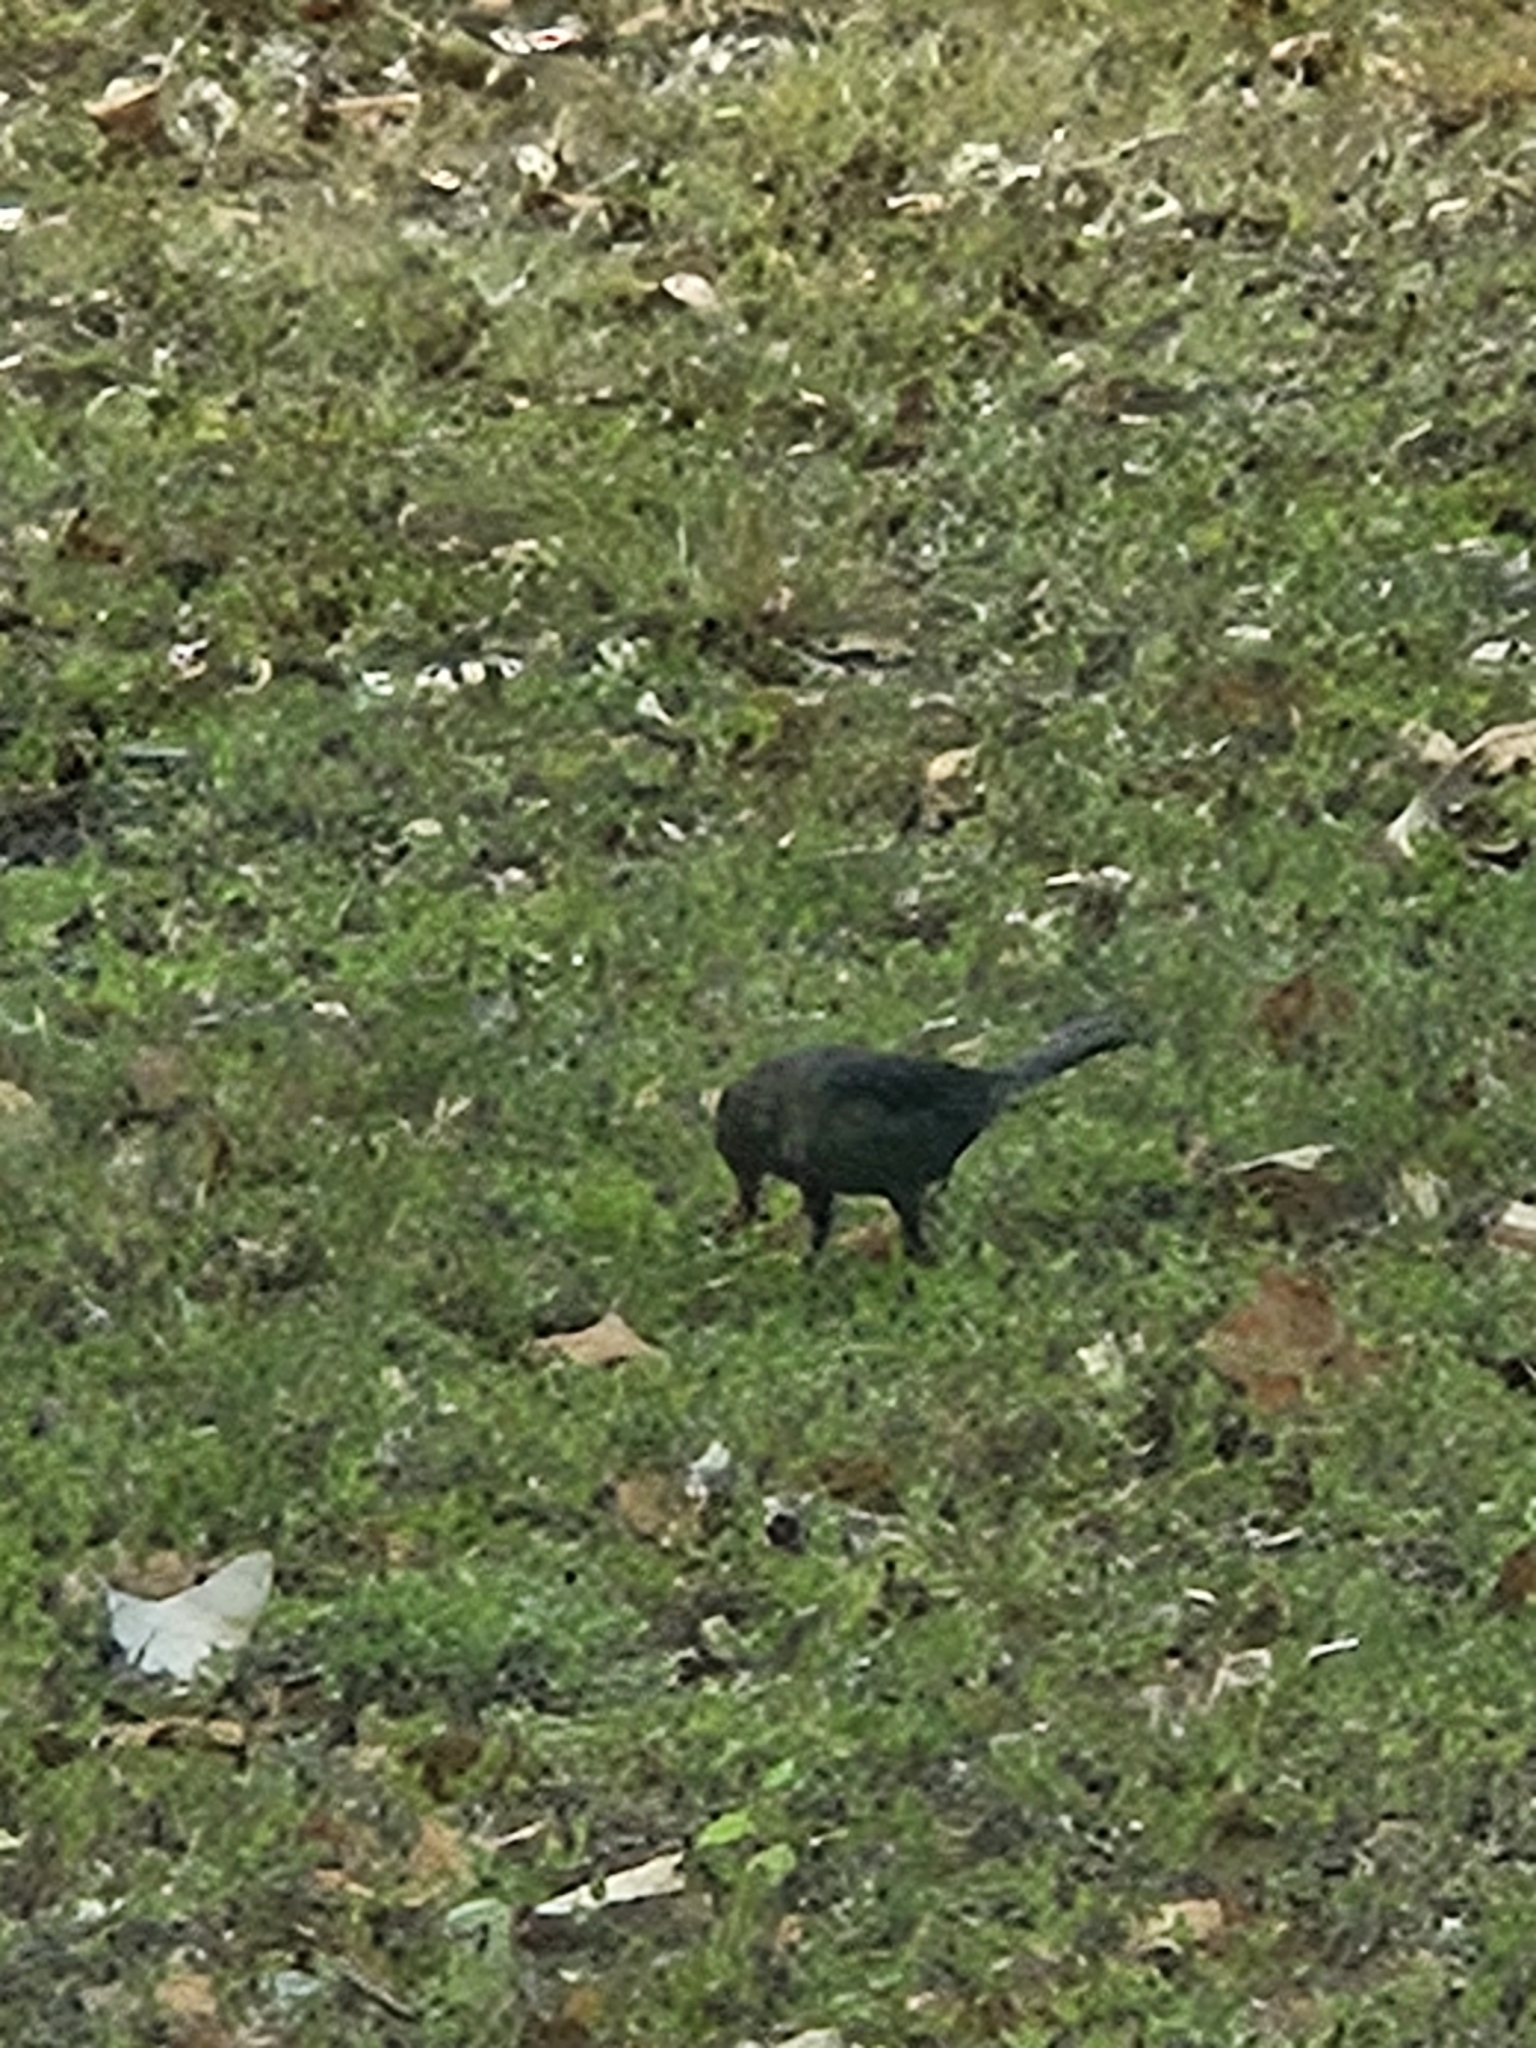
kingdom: Animalia
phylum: Chordata
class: Aves
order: Passeriformes
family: Icteridae
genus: Quiscalus
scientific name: Quiscalus mexicanus
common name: Great-tailed grackle
